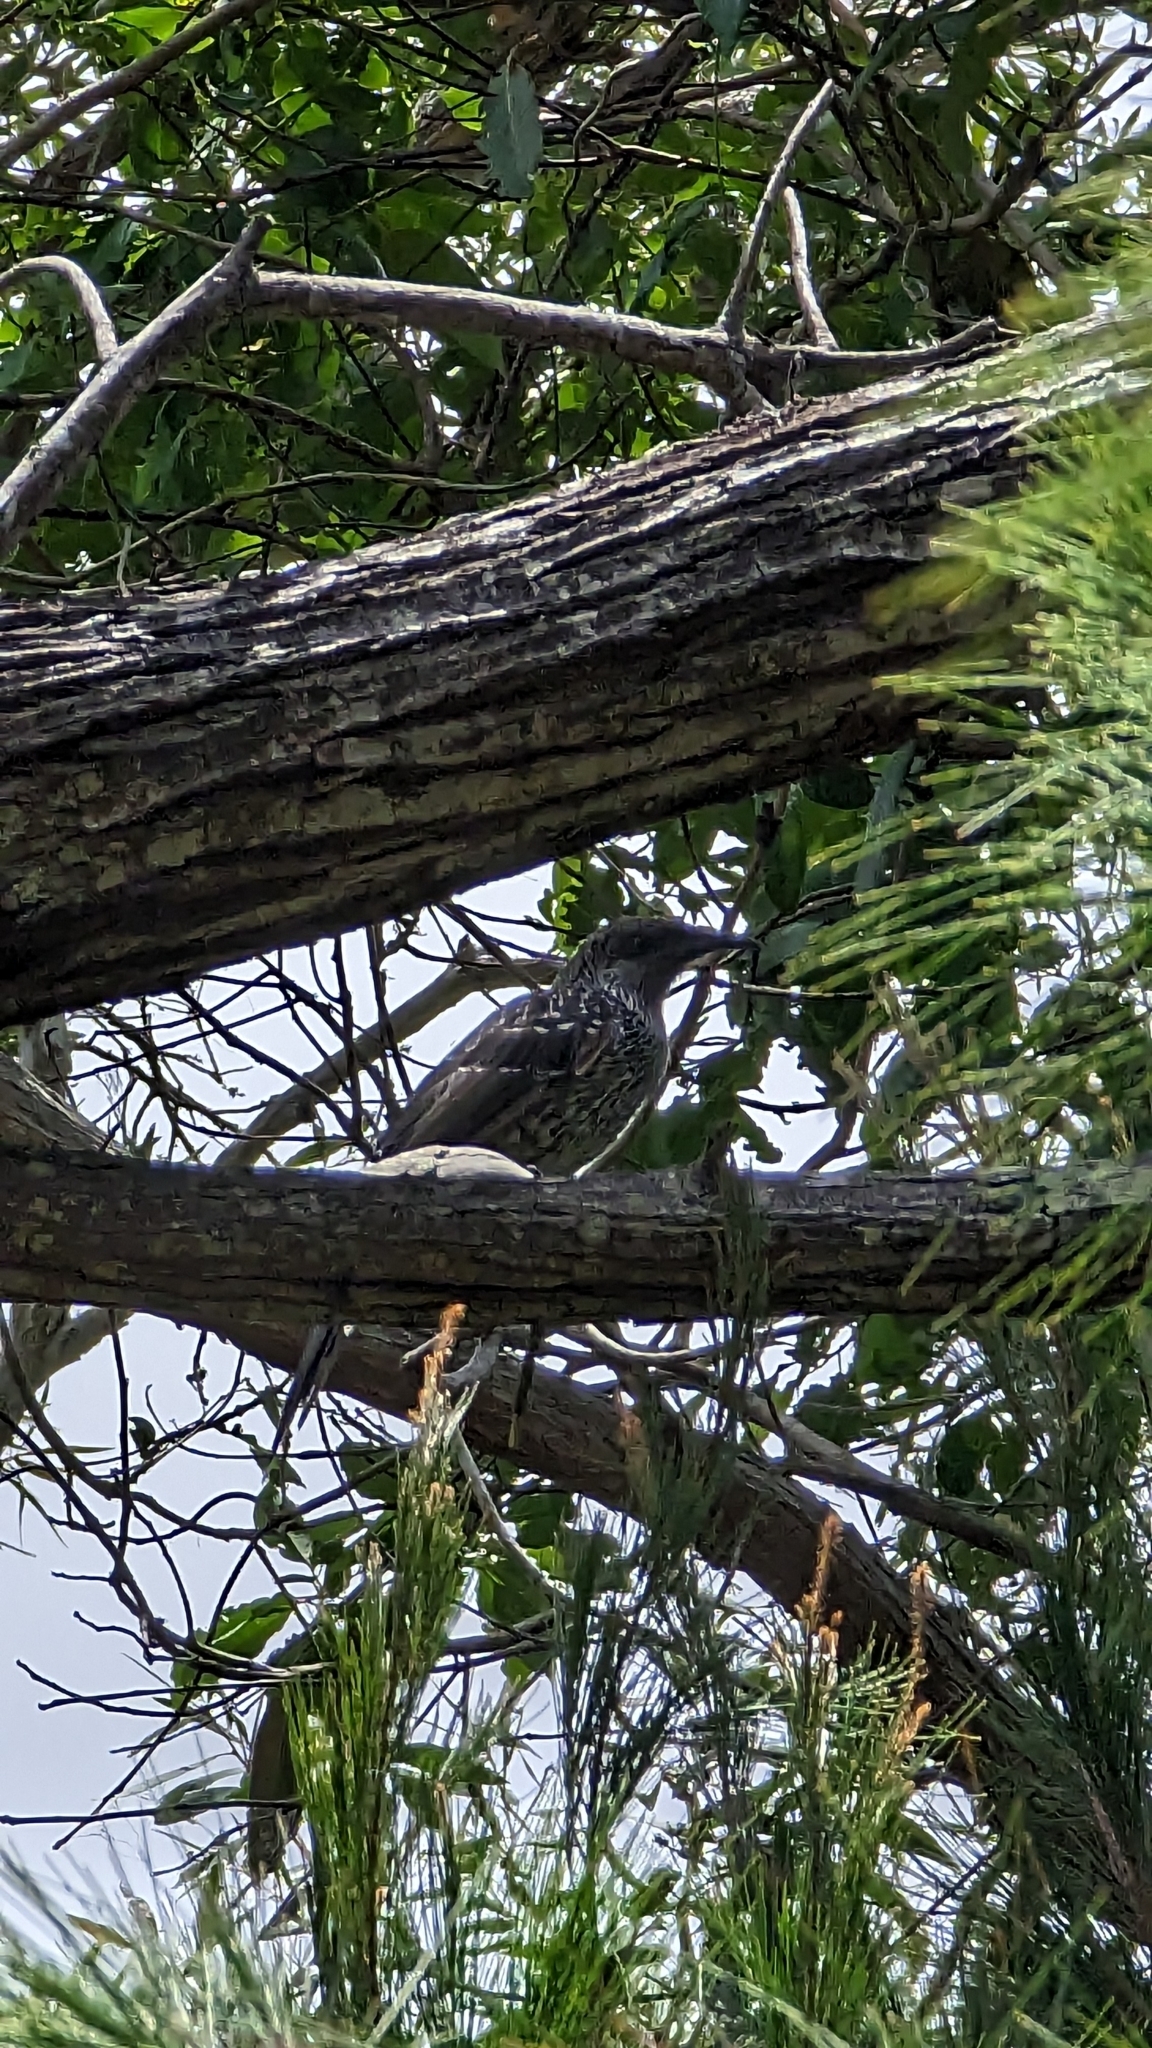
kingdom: Animalia
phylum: Chordata
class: Aves
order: Passeriformes
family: Meliphagidae
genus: Anthochaera
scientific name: Anthochaera chrysoptera
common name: Little wattlebird
